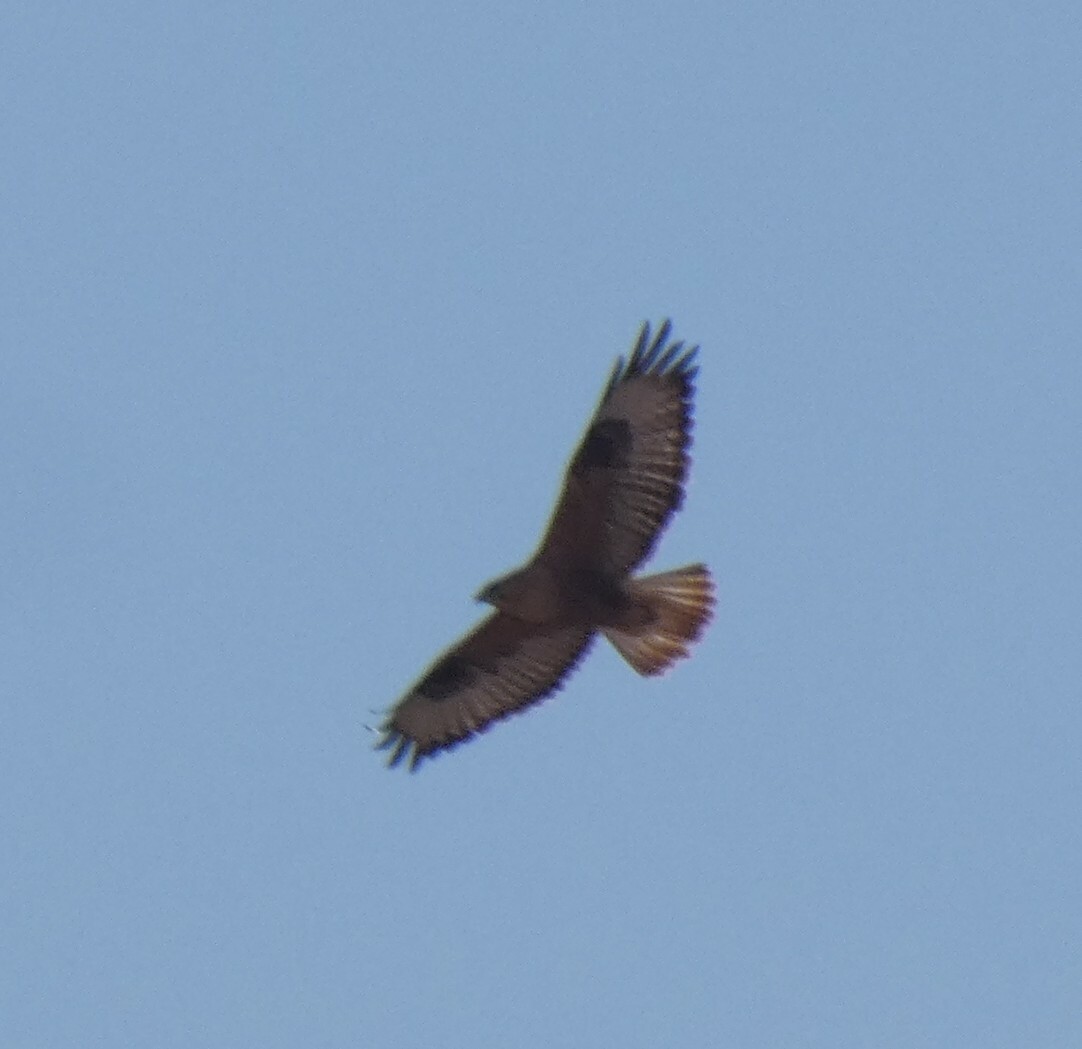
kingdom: Animalia
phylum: Chordata
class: Aves
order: Accipitriformes
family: Accipitridae
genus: Buteo
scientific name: Buteo rufinus
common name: Long-legged buzzard
